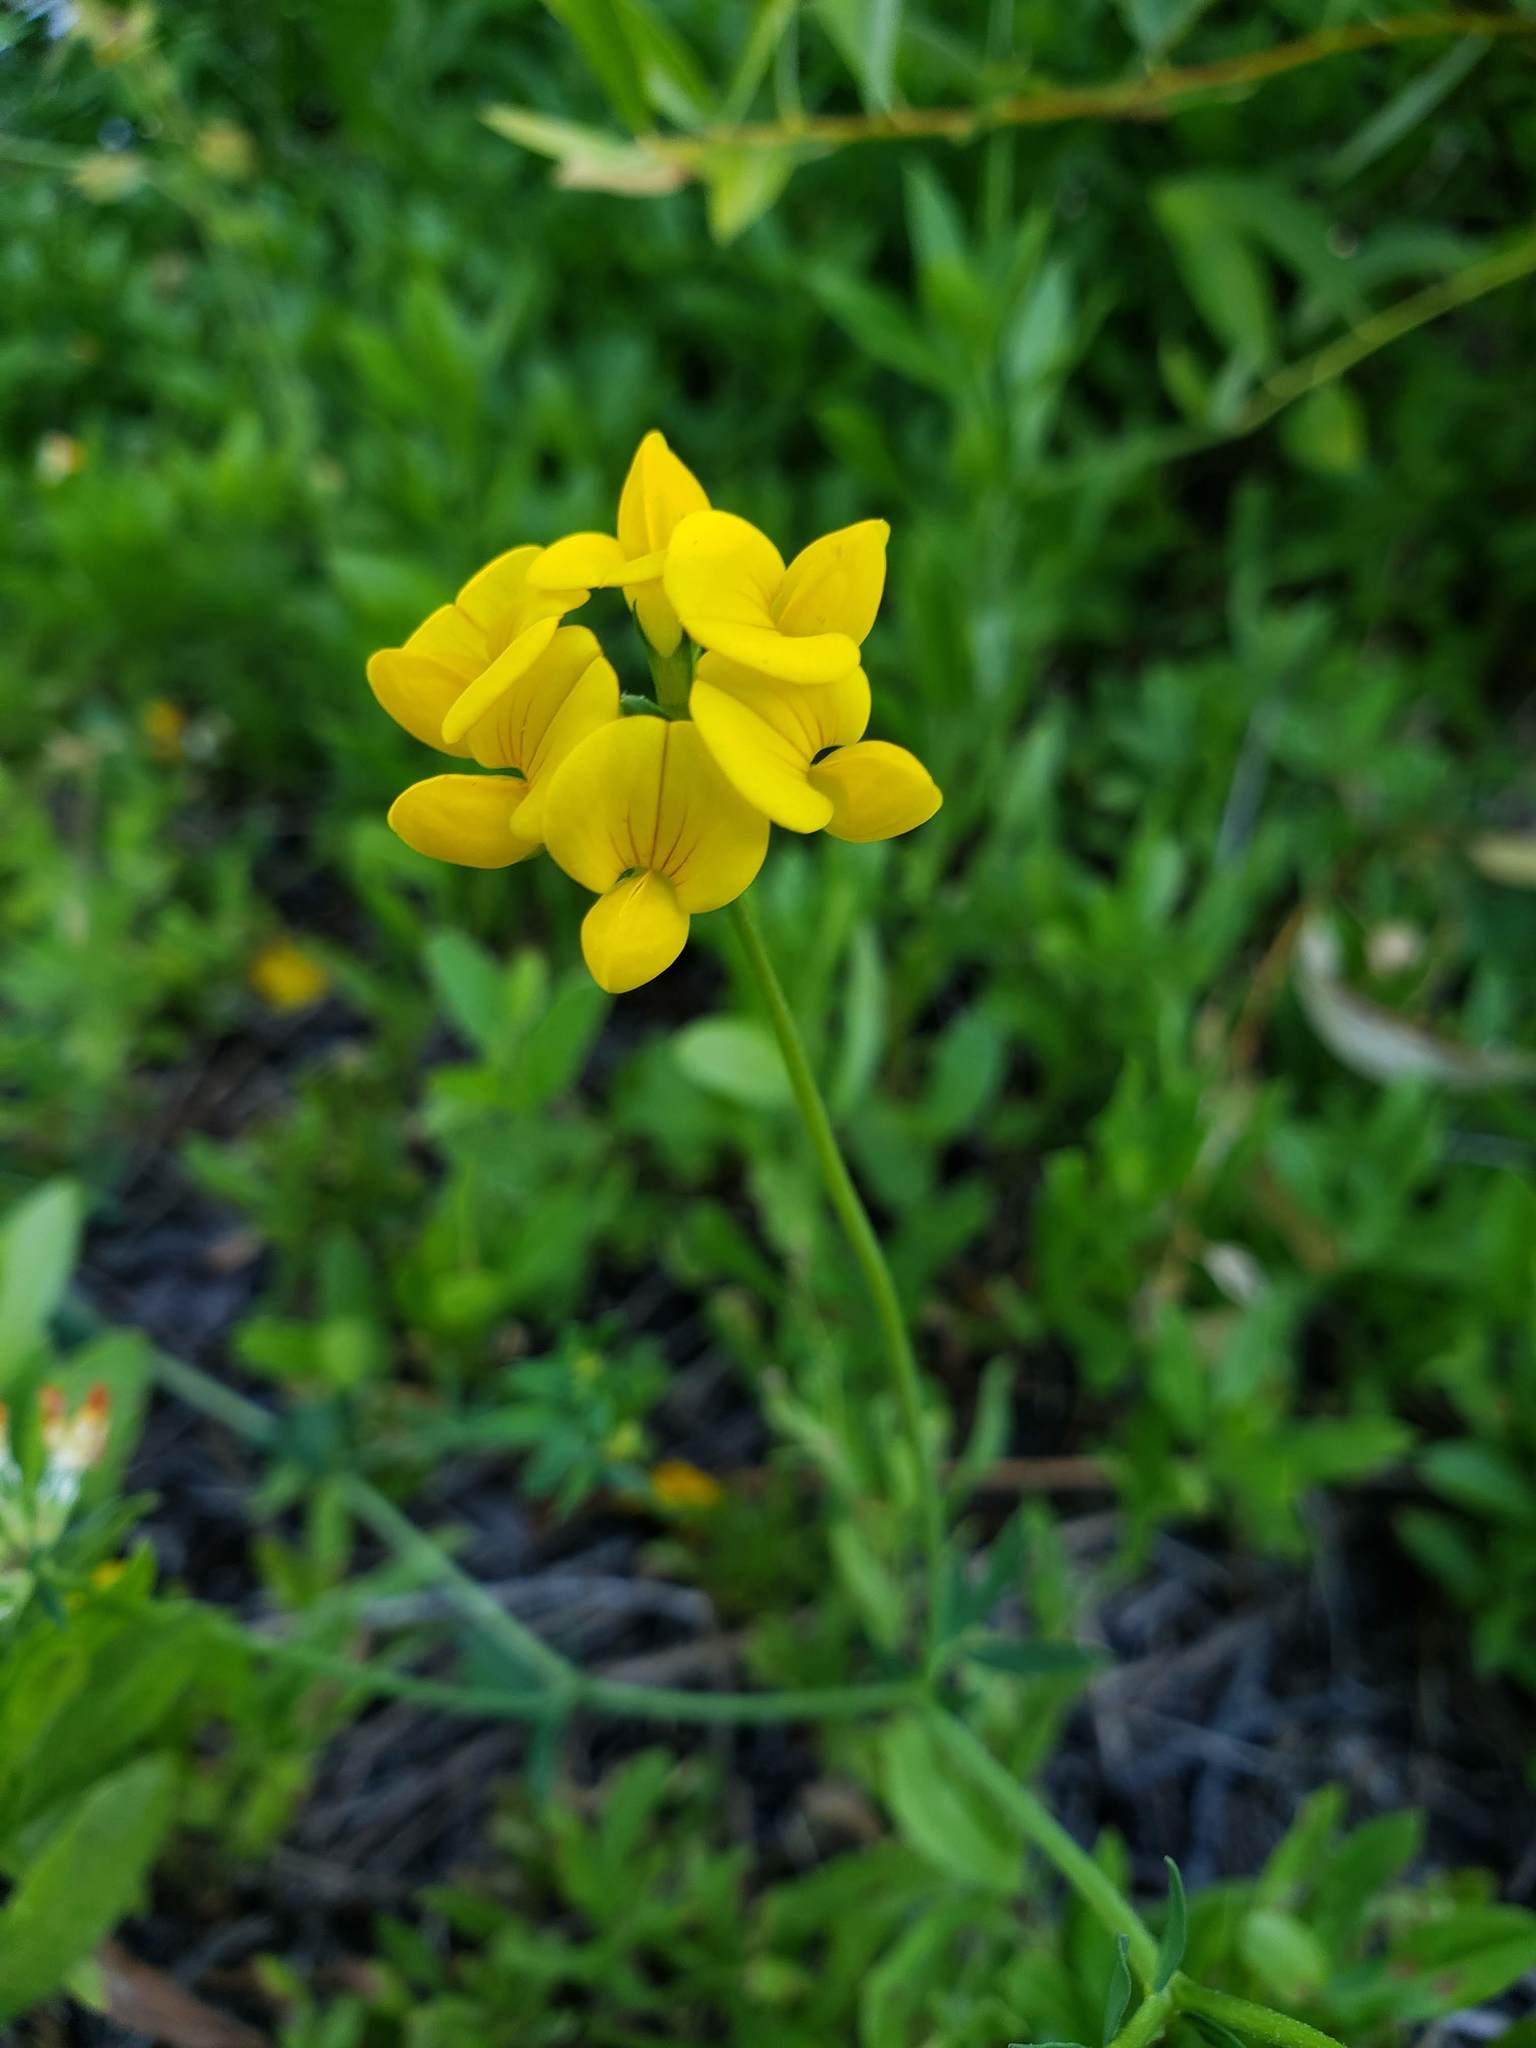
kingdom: Plantae
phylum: Tracheophyta
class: Magnoliopsida
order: Fabales
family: Fabaceae
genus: Lotus
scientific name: Lotus corniculatus
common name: Common bird's-foot-trefoil
